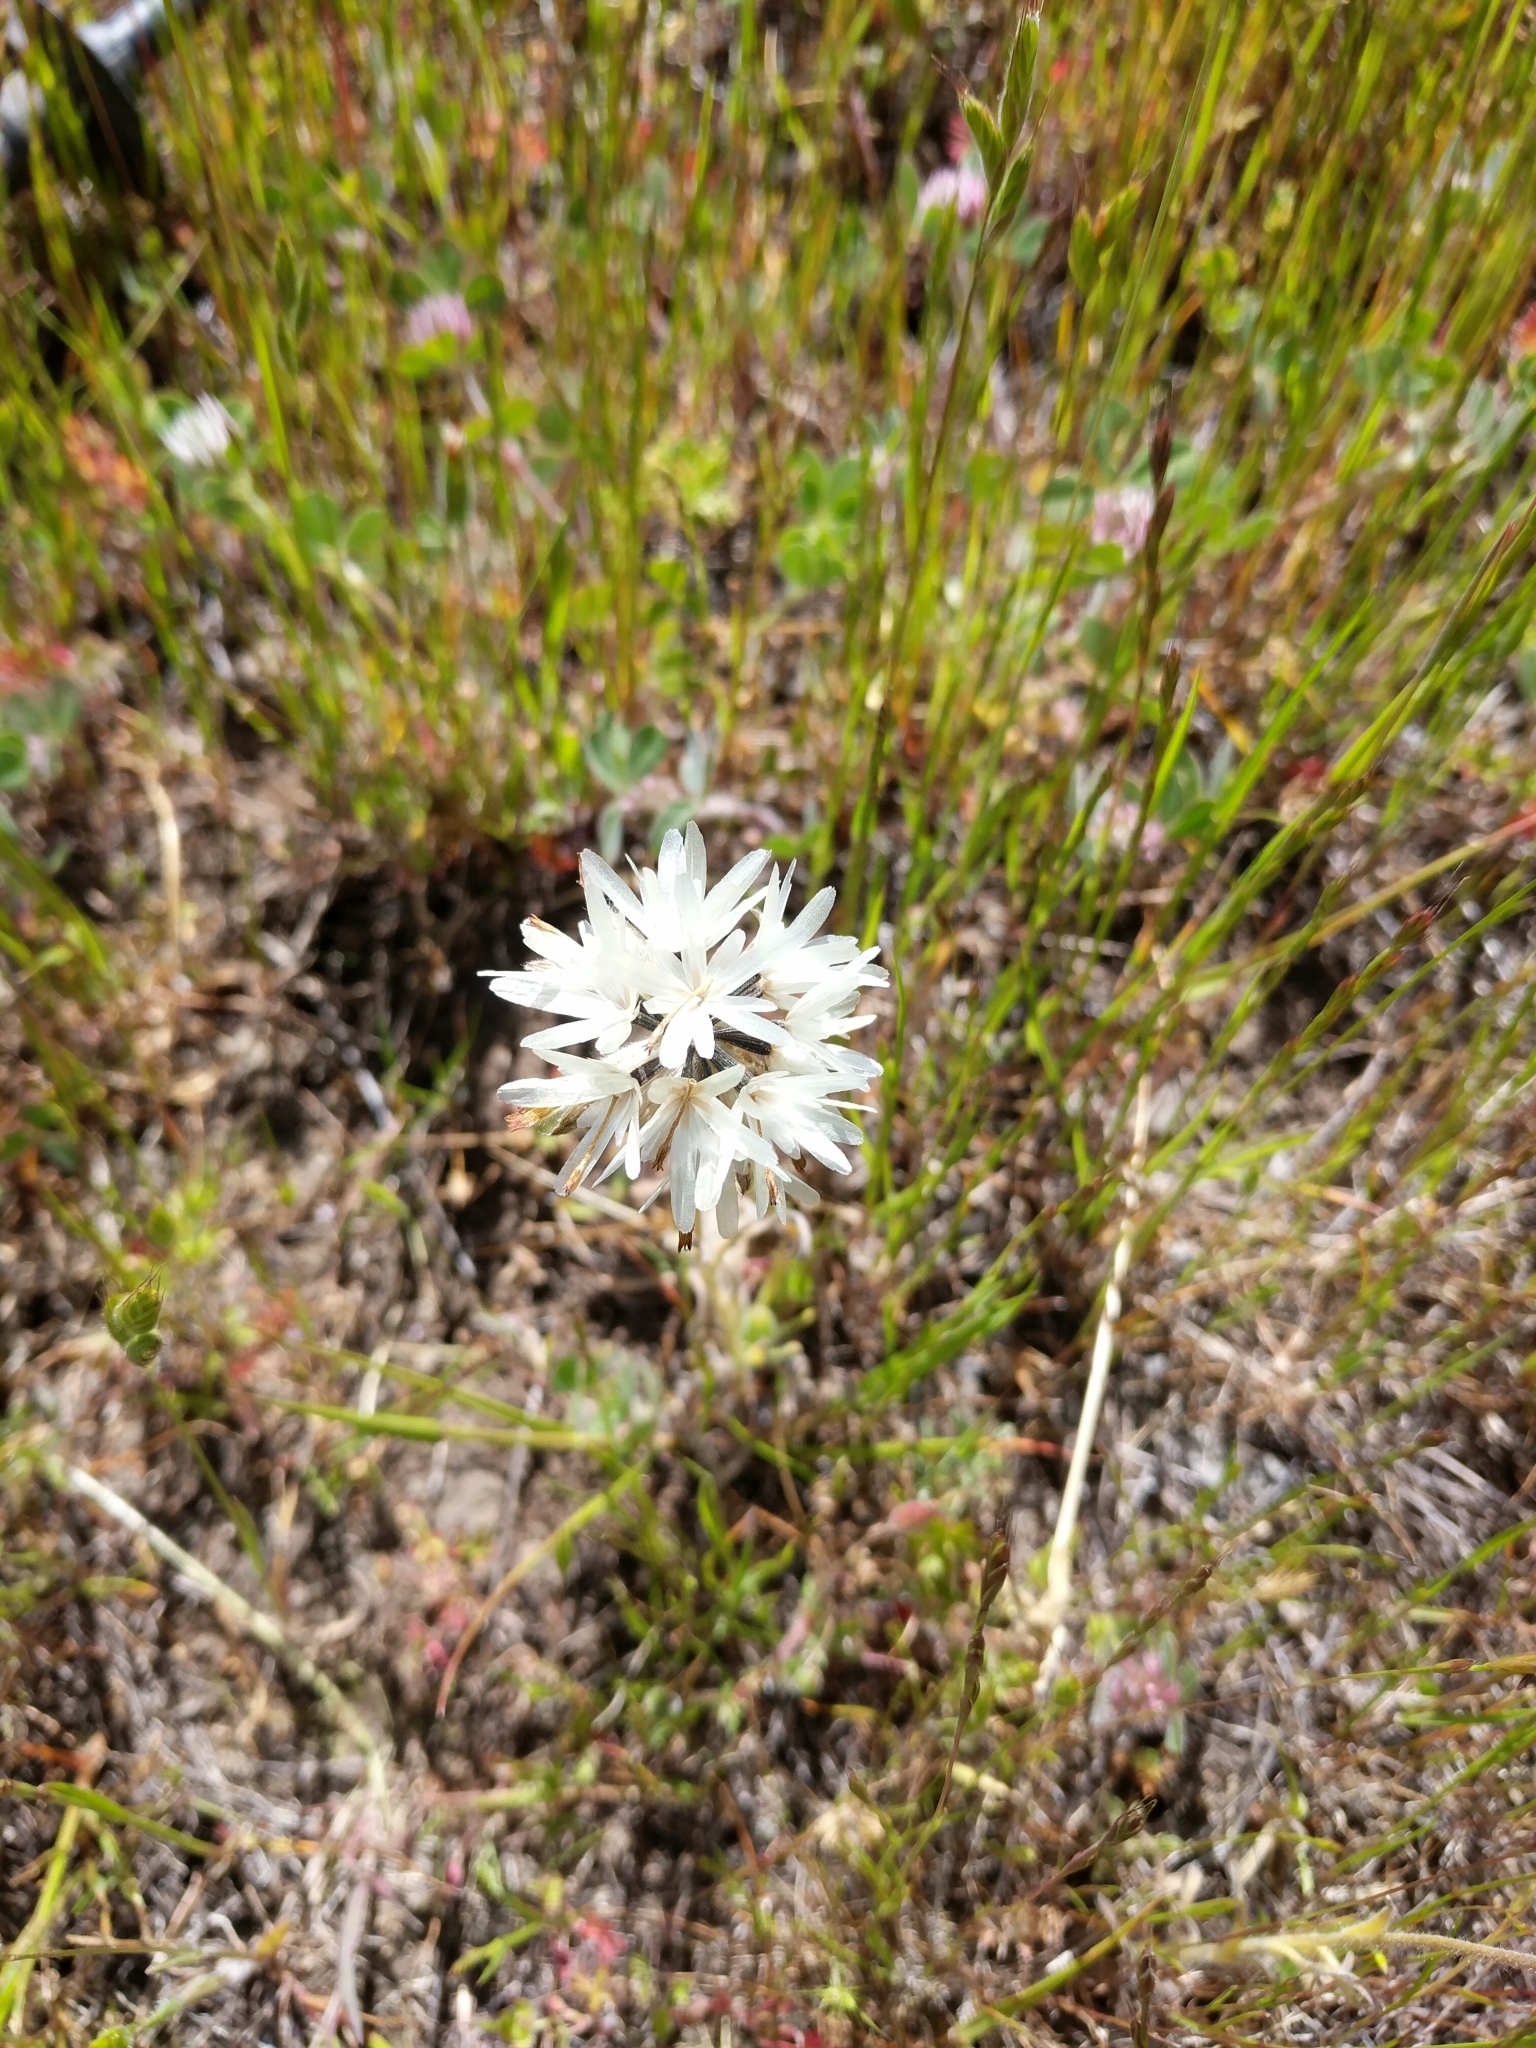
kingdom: Plantae
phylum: Tracheophyta
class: Magnoliopsida
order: Asterales
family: Asteraceae
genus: Achyrachaena
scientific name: Achyrachaena mollis
